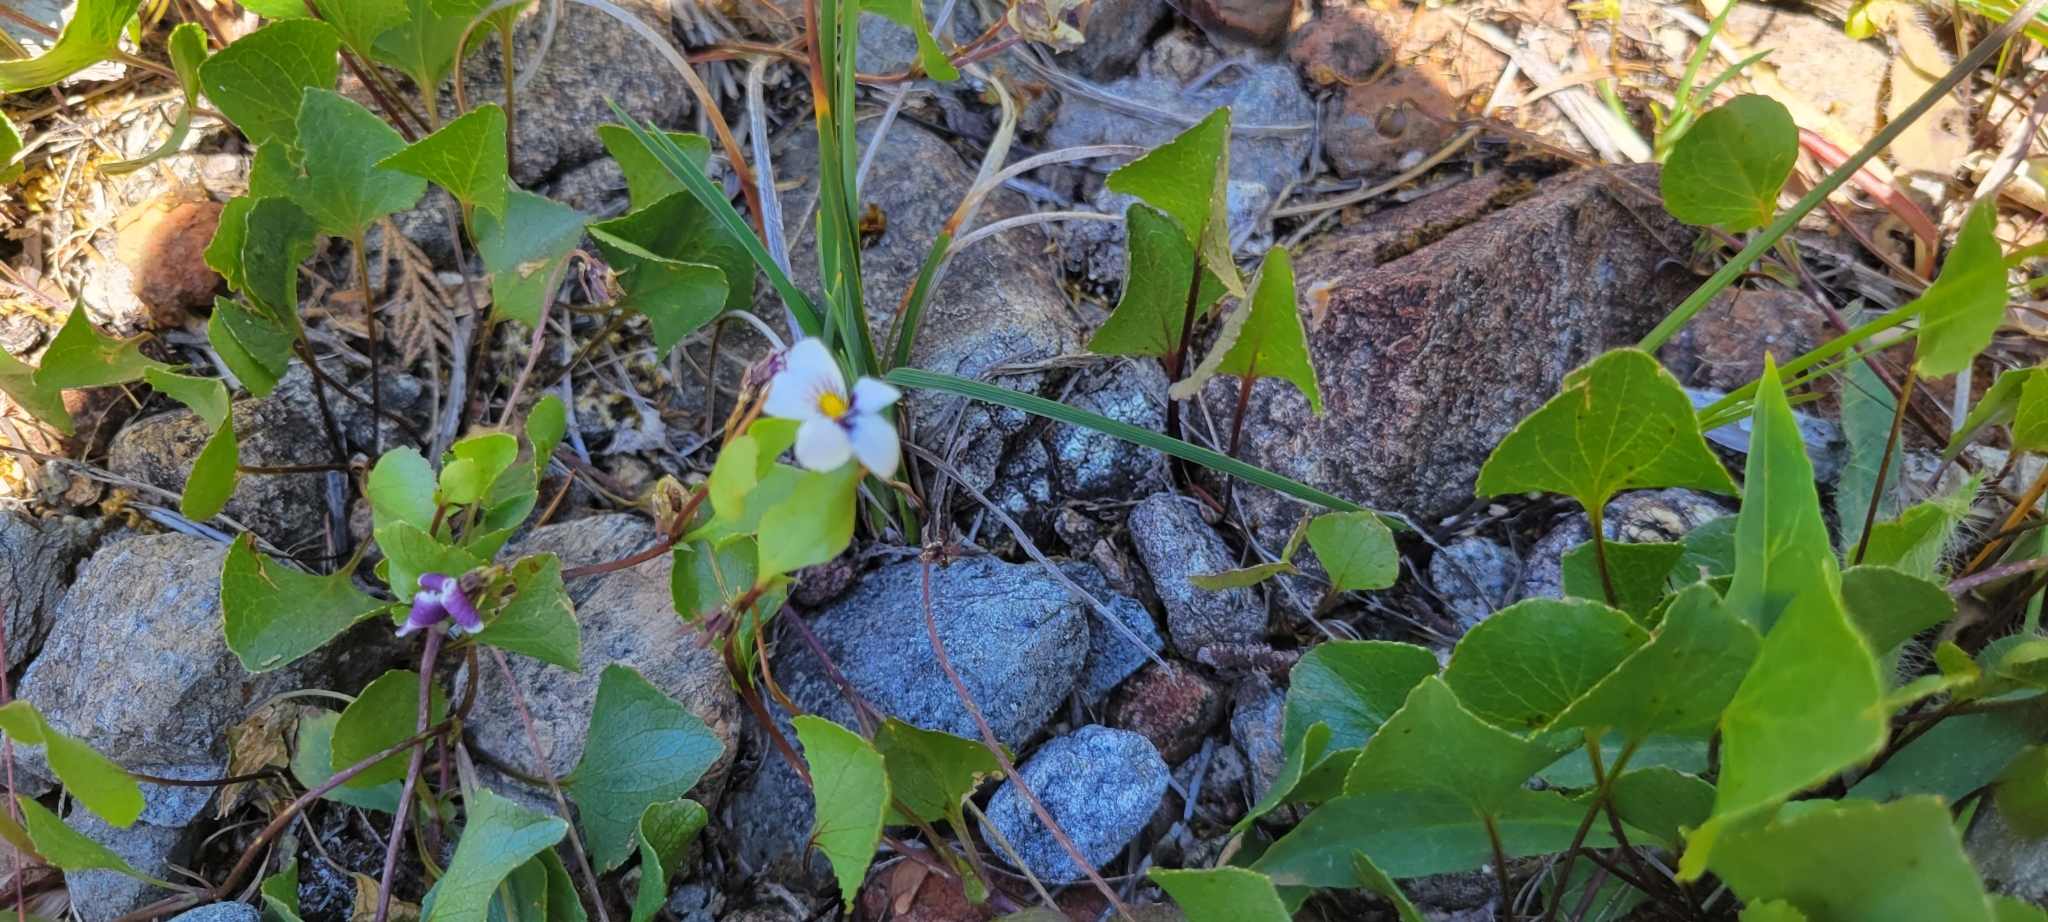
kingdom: Plantae
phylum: Tracheophyta
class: Magnoliopsida
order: Malpighiales
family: Violaceae
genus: Viola
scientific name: Viola cuneata
